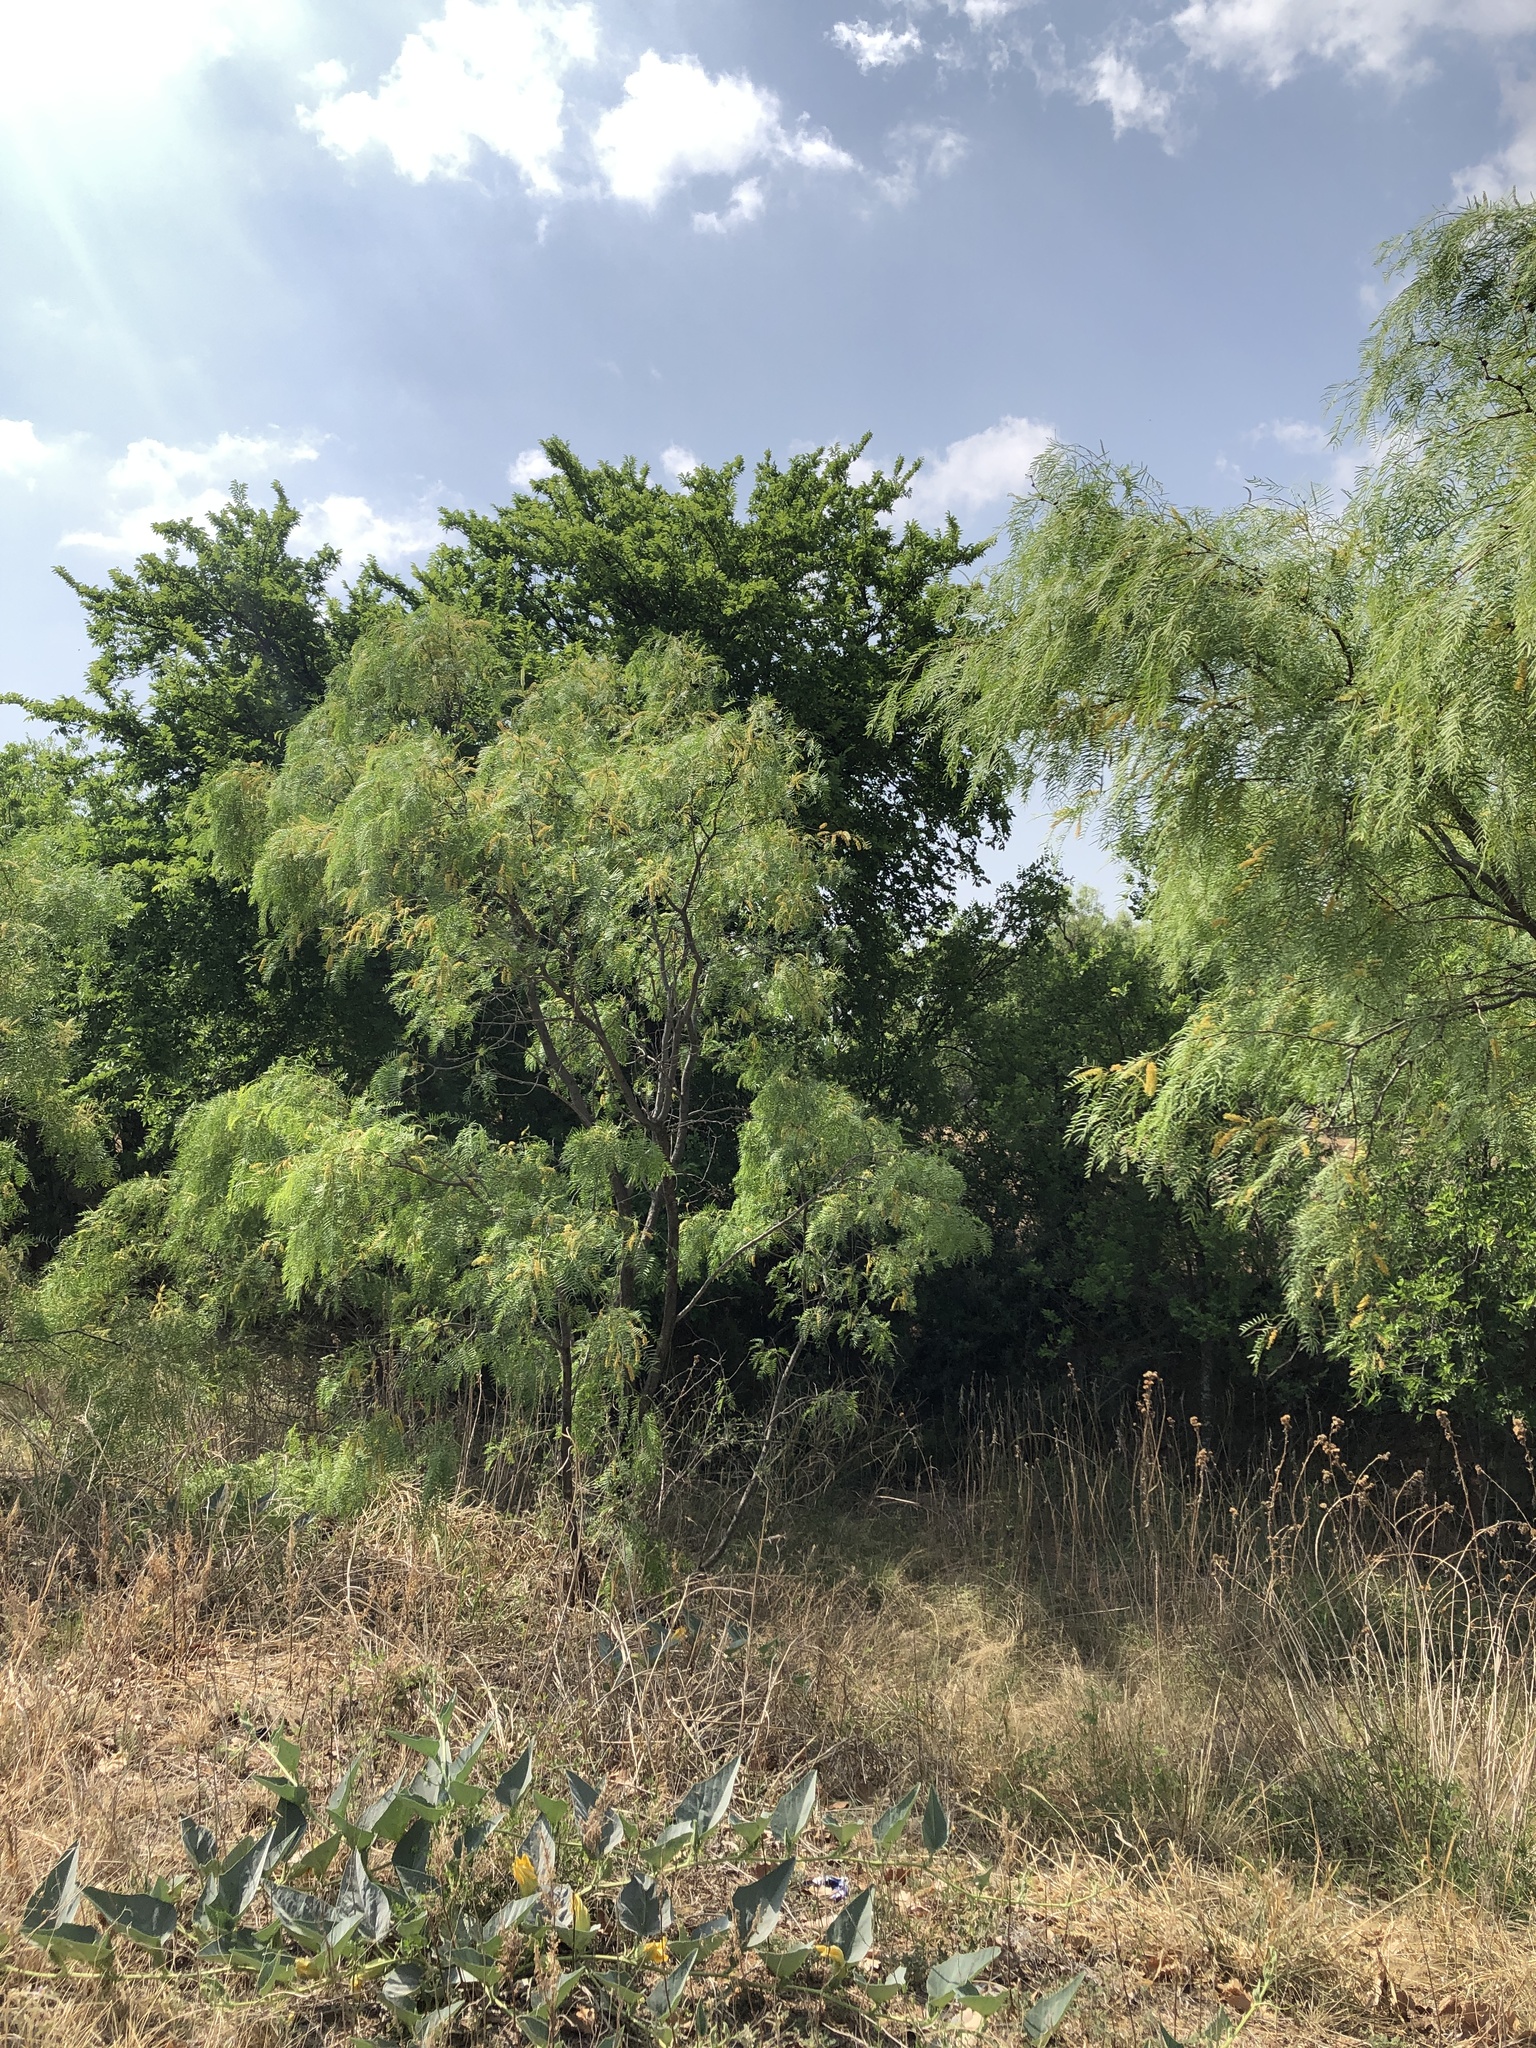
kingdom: Animalia
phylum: Chordata
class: Aves
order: Passeriformes
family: Vireonidae
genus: Vireo
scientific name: Vireo bellii
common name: Bell's vireo
